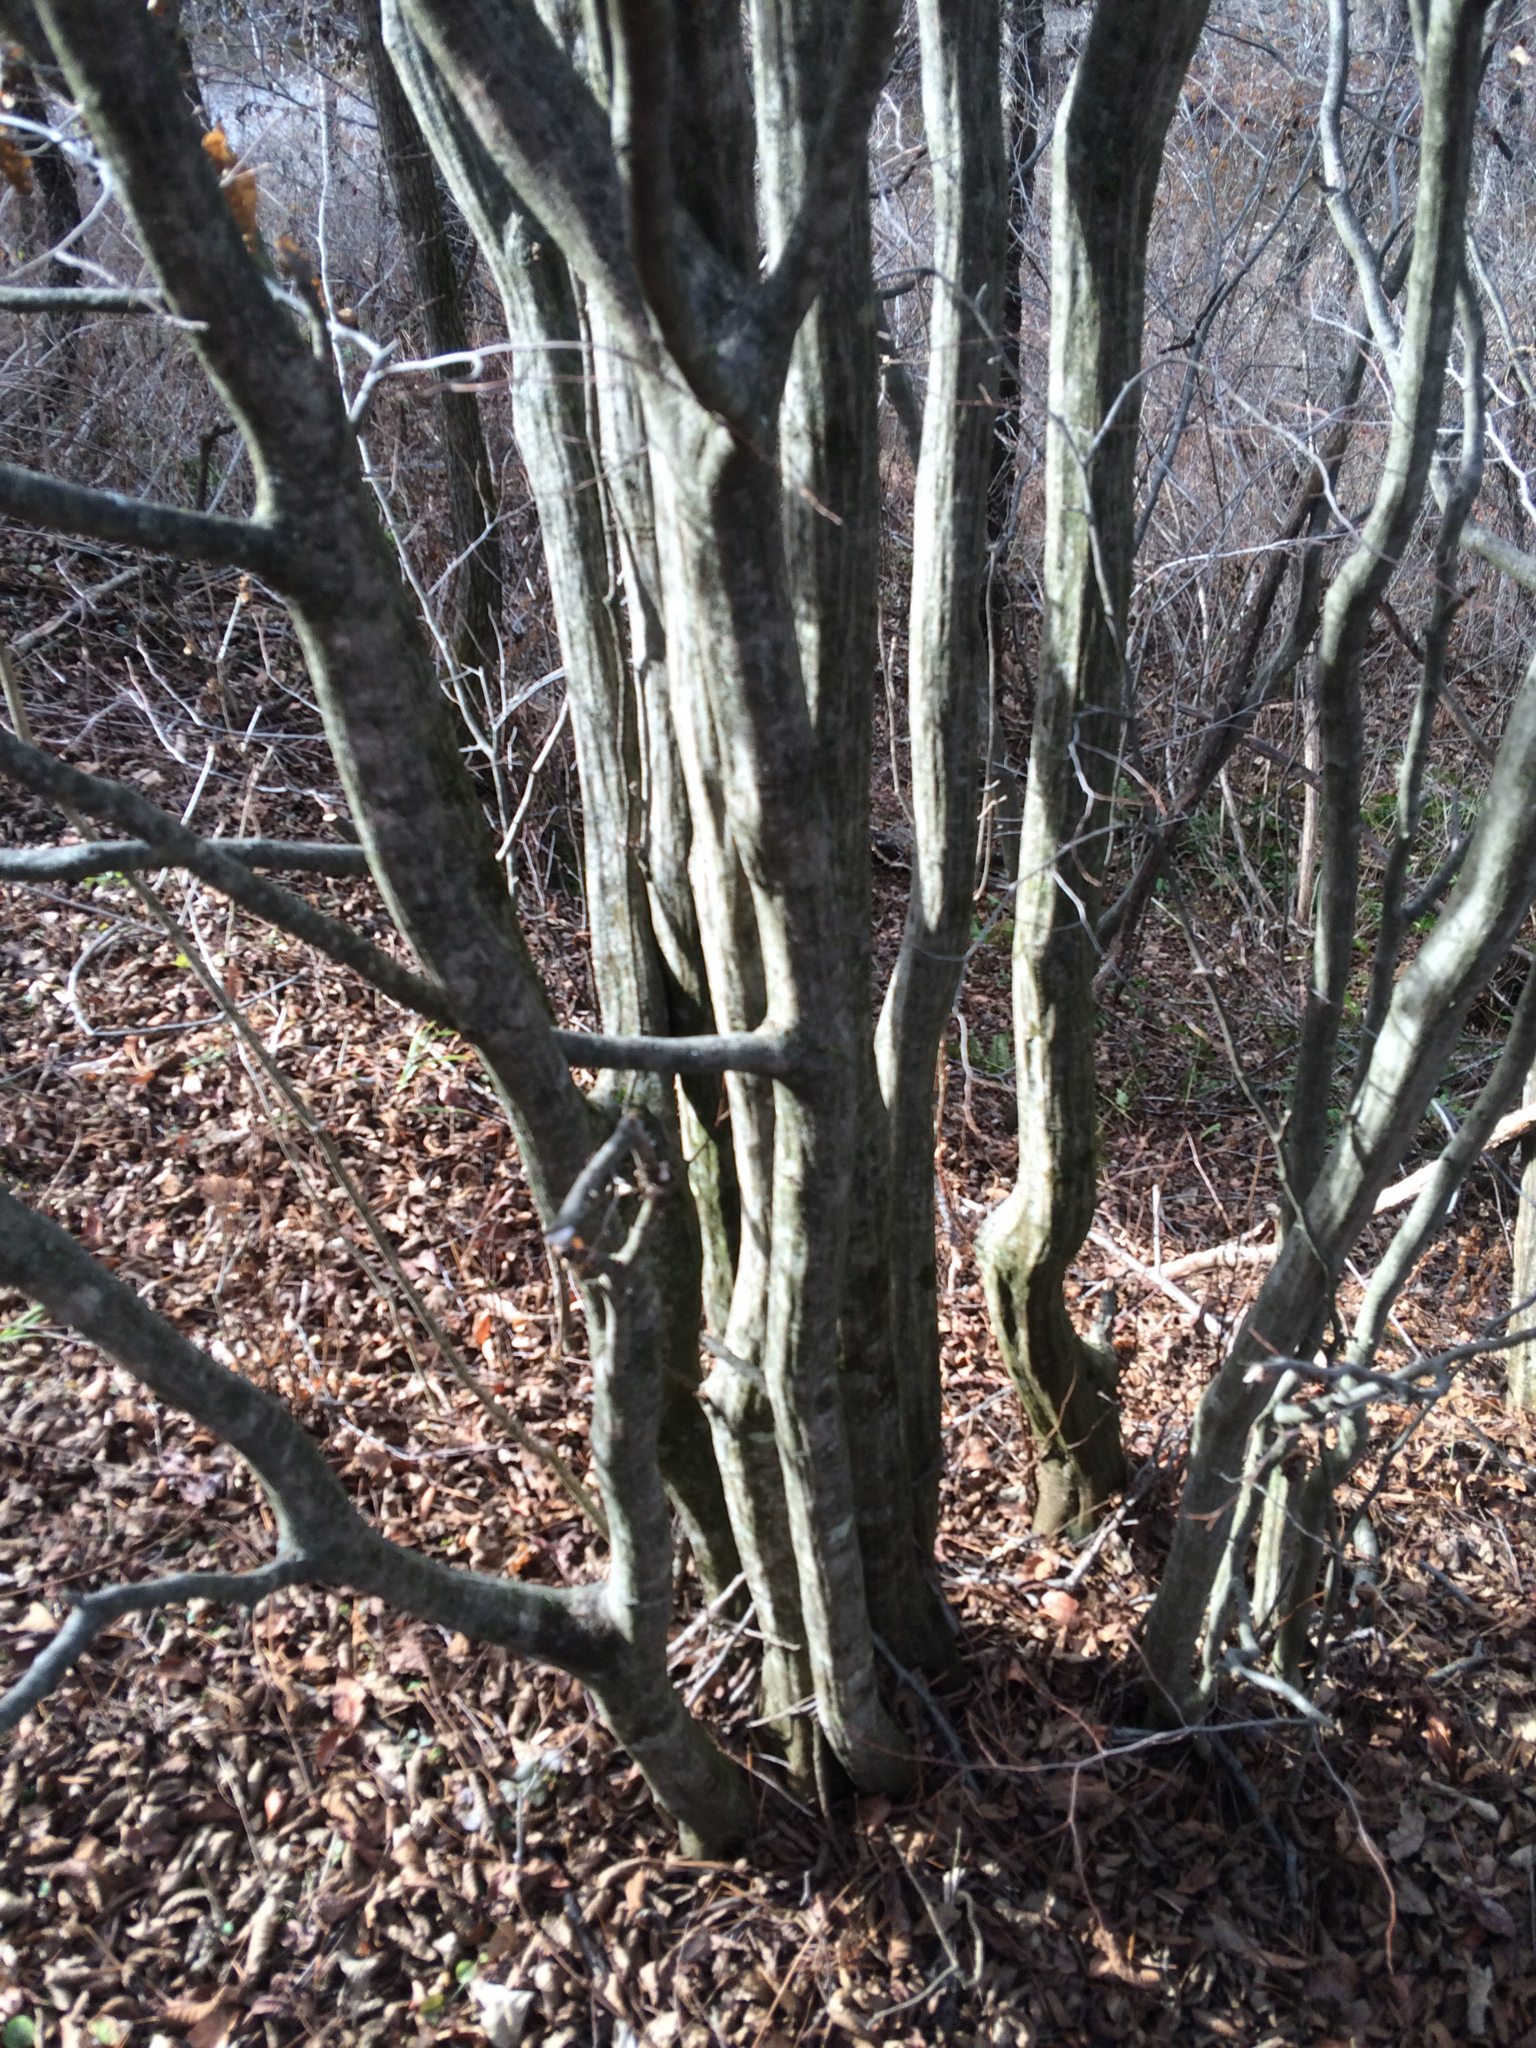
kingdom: Plantae
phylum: Tracheophyta
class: Magnoliopsida
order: Fagales
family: Betulaceae
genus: Carpinus
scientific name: Carpinus caroliniana
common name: American hornbeam
